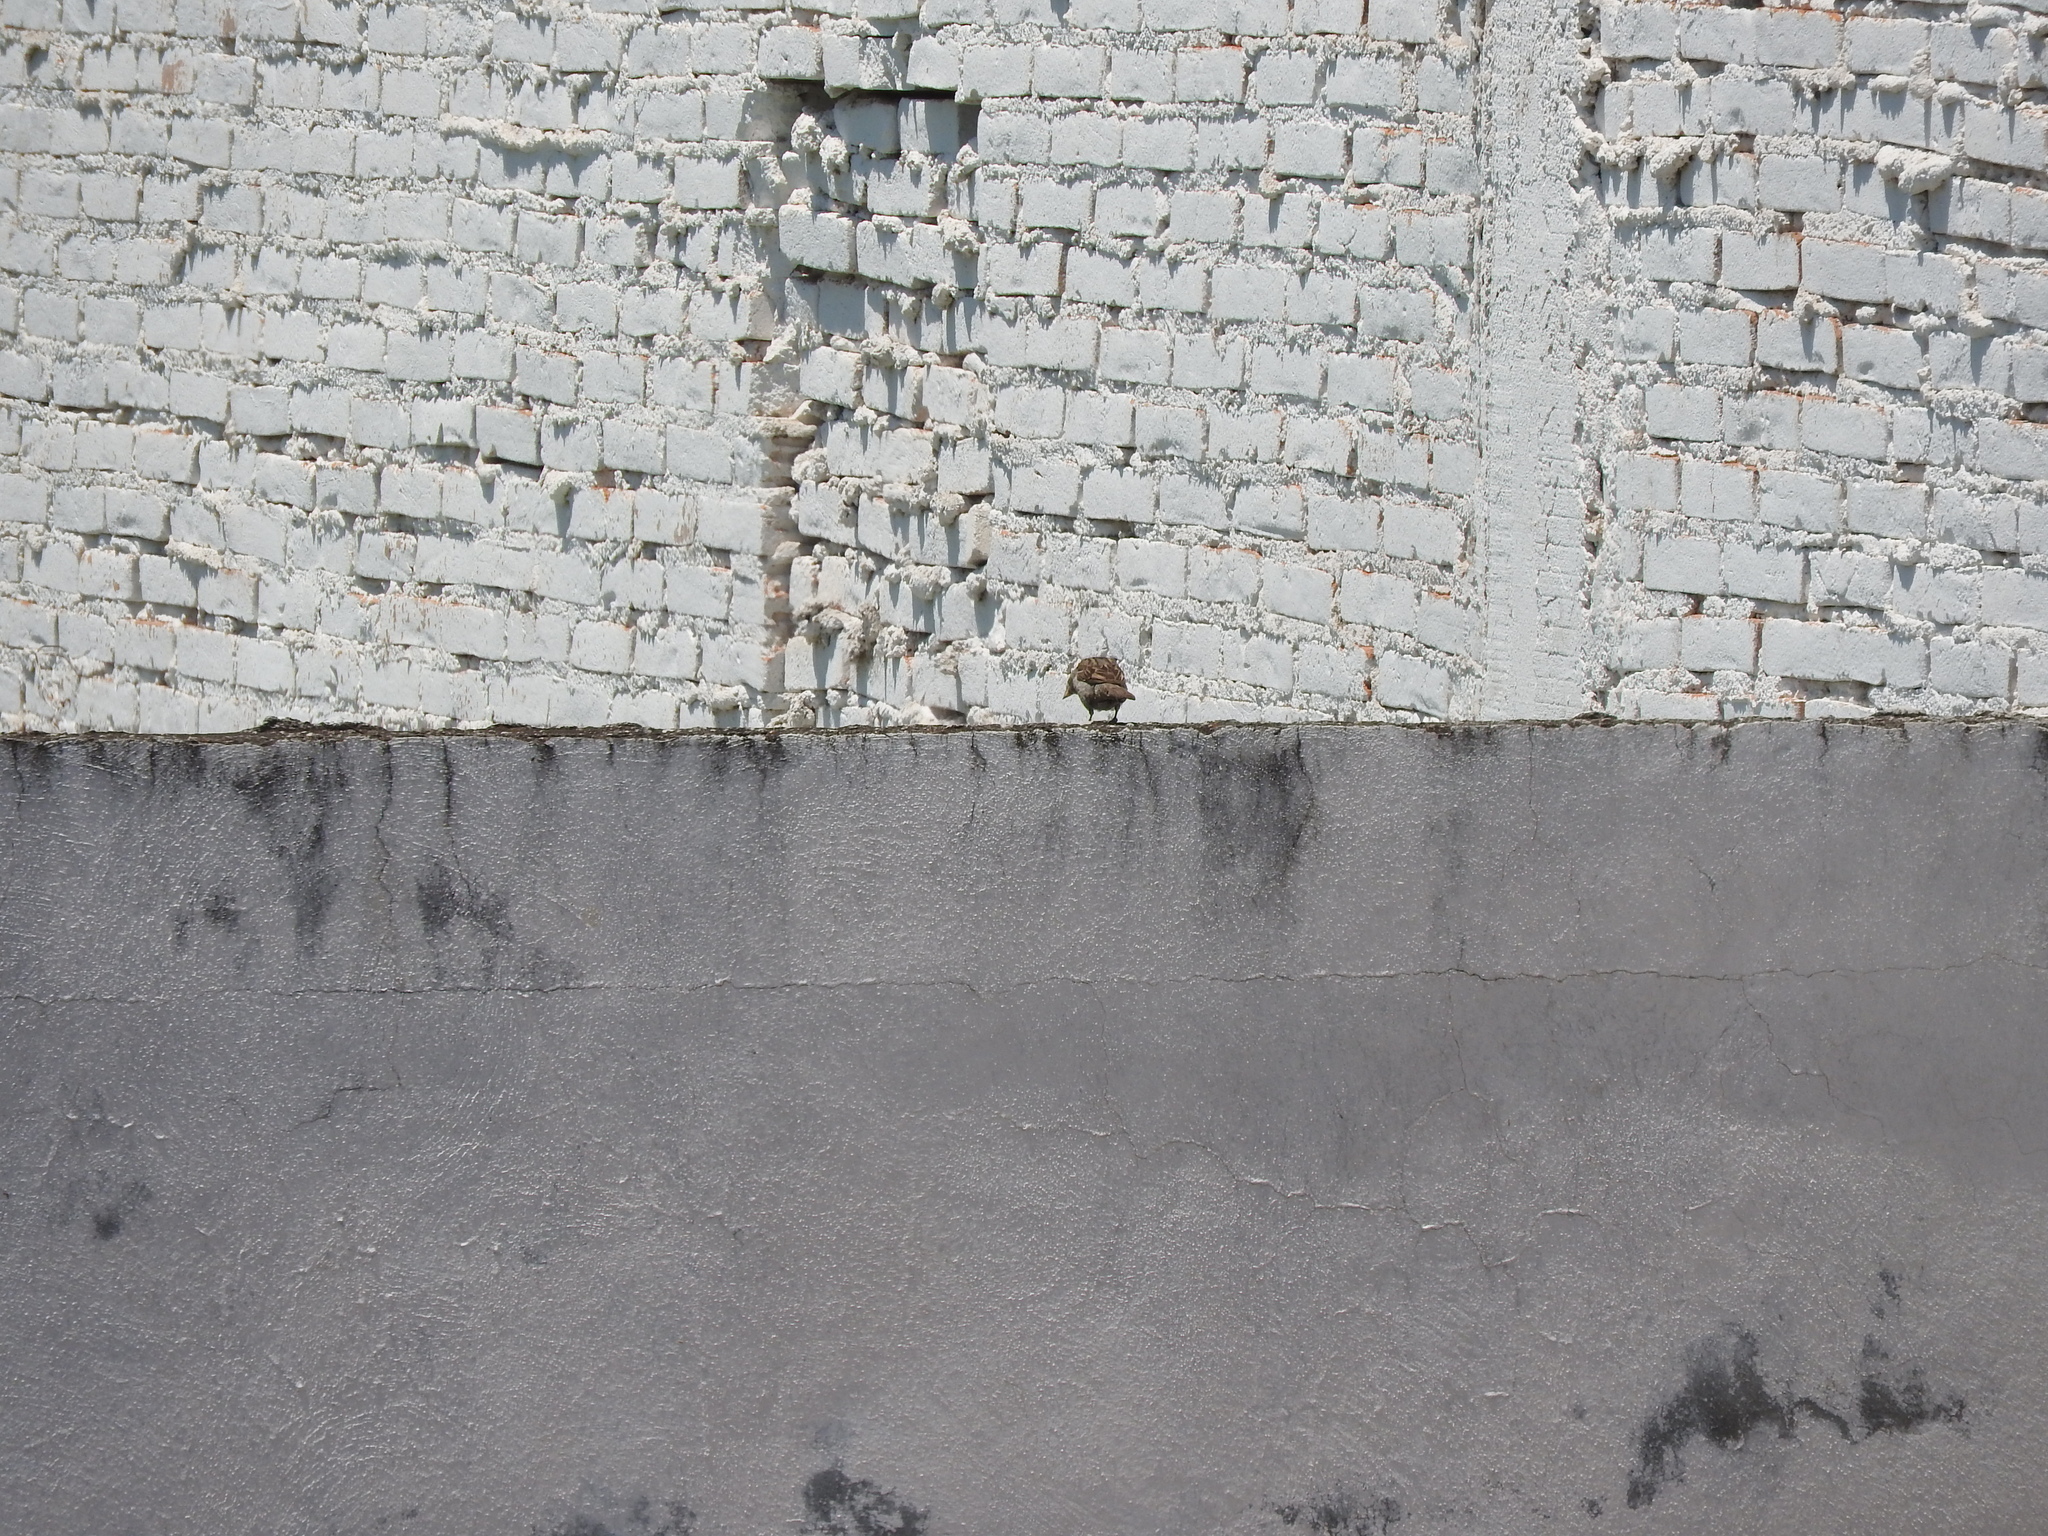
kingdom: Animalia
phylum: Chordata
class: Aves
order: Passeriformes
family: Passeridae
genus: Passer
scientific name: Passer domesticus
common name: House sparrow
